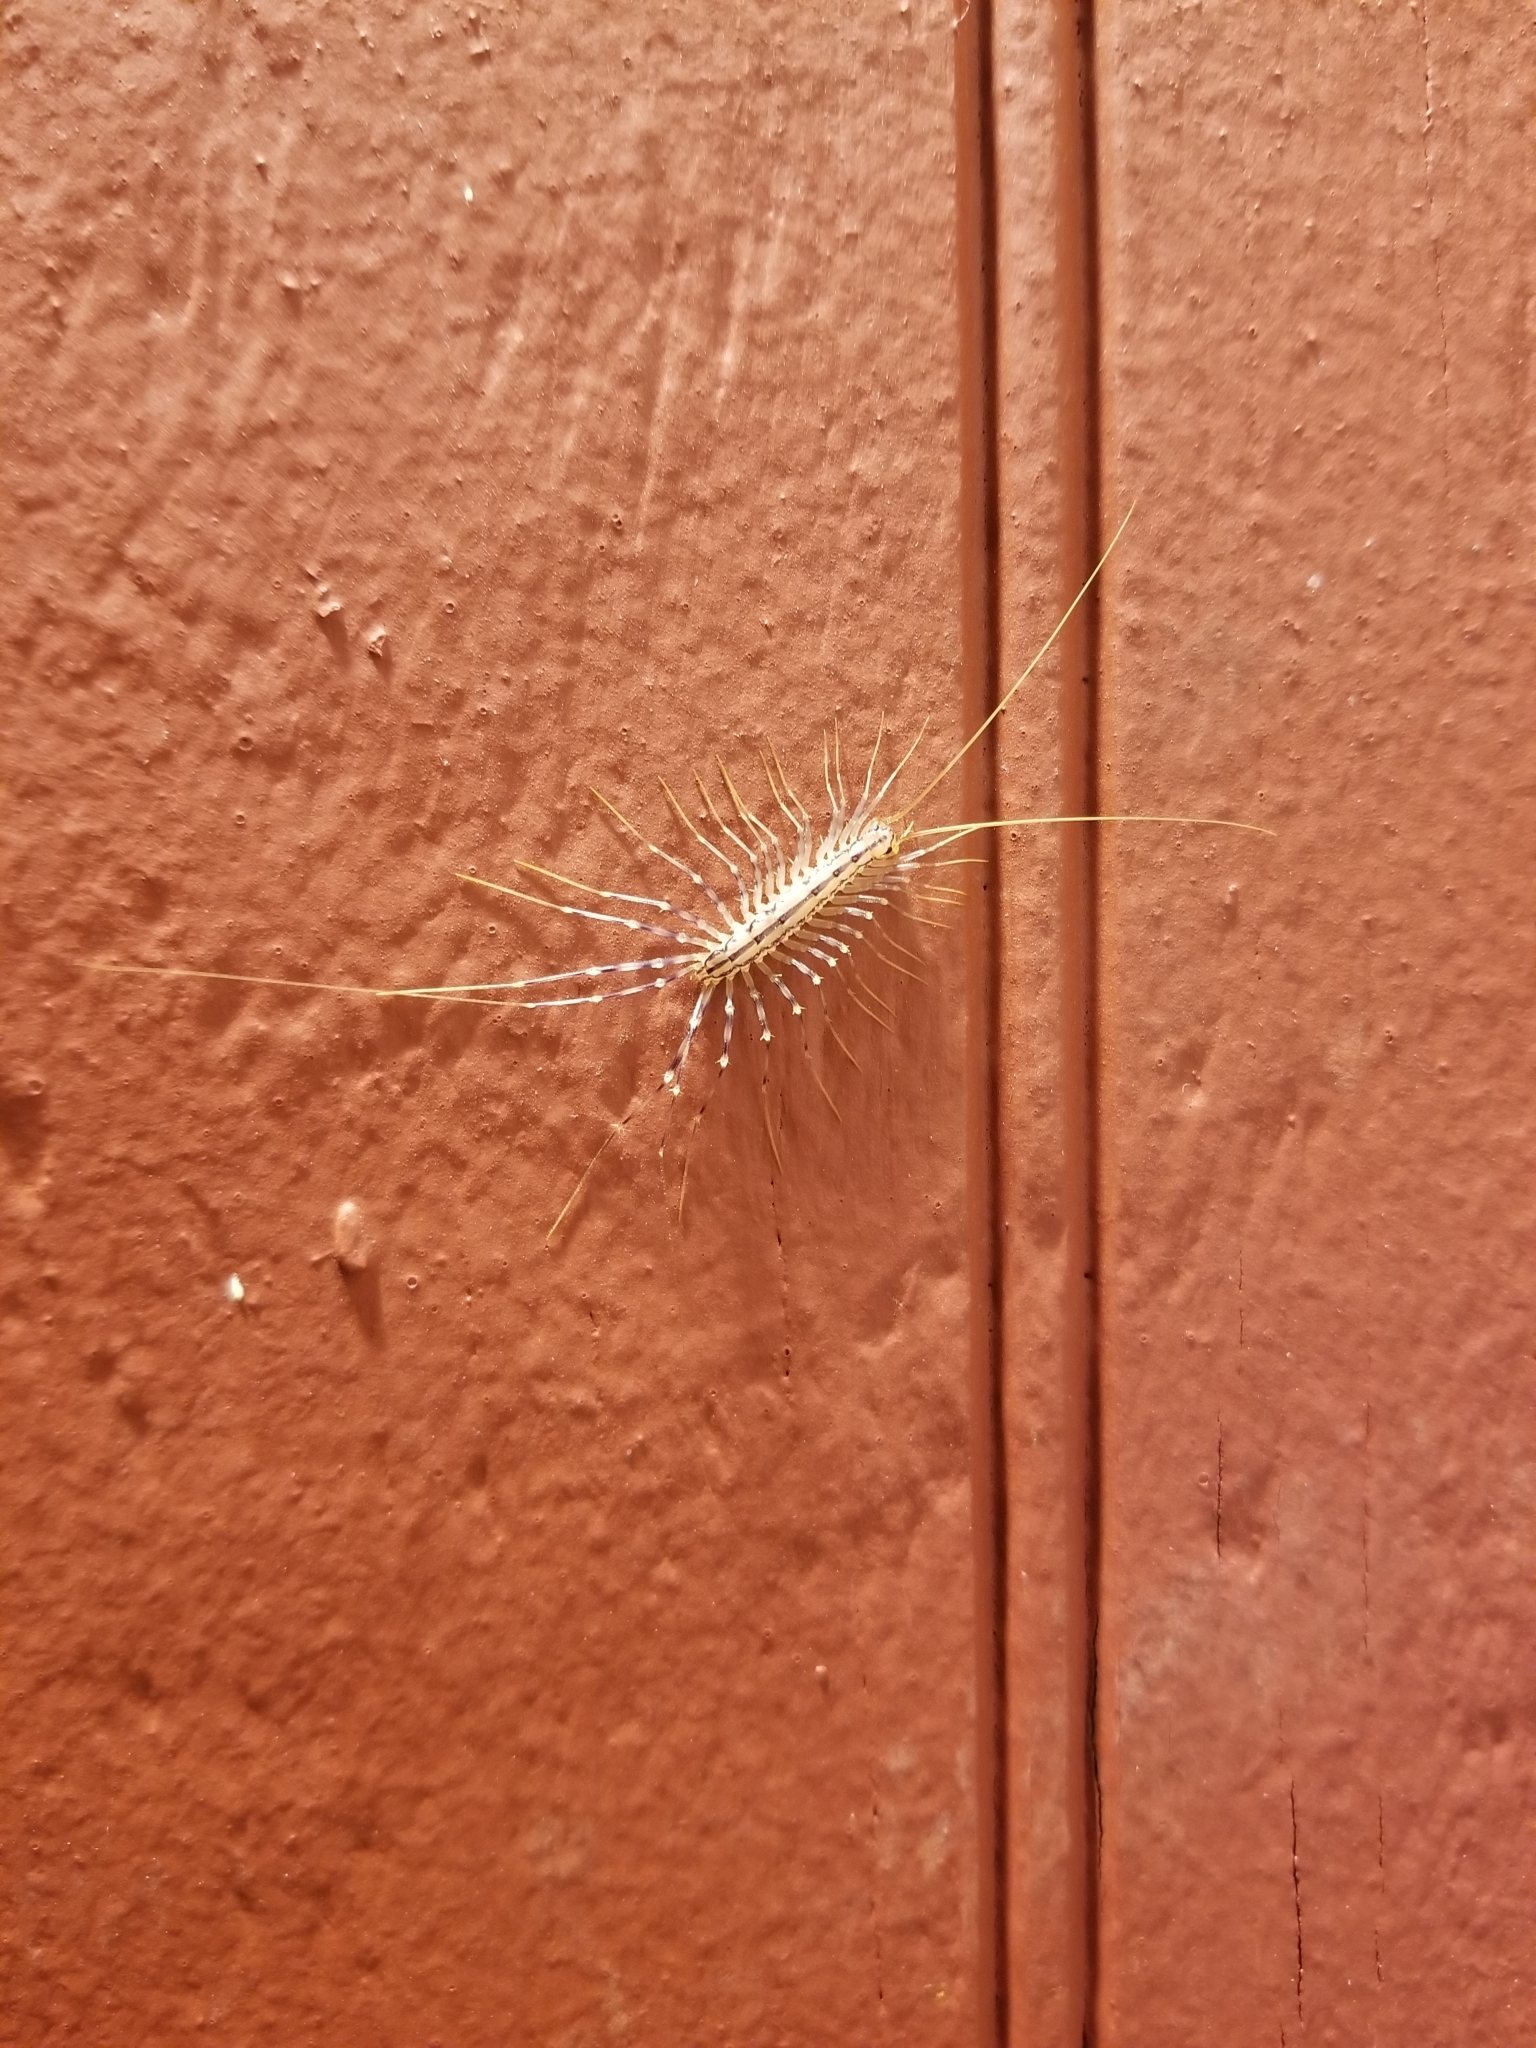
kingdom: Animalia
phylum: Arthropoda
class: Chilopoda
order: Scutigeromorpha
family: Scutigeridae
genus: Scutigera
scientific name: Scutigera coleoptrata
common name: House centipede
